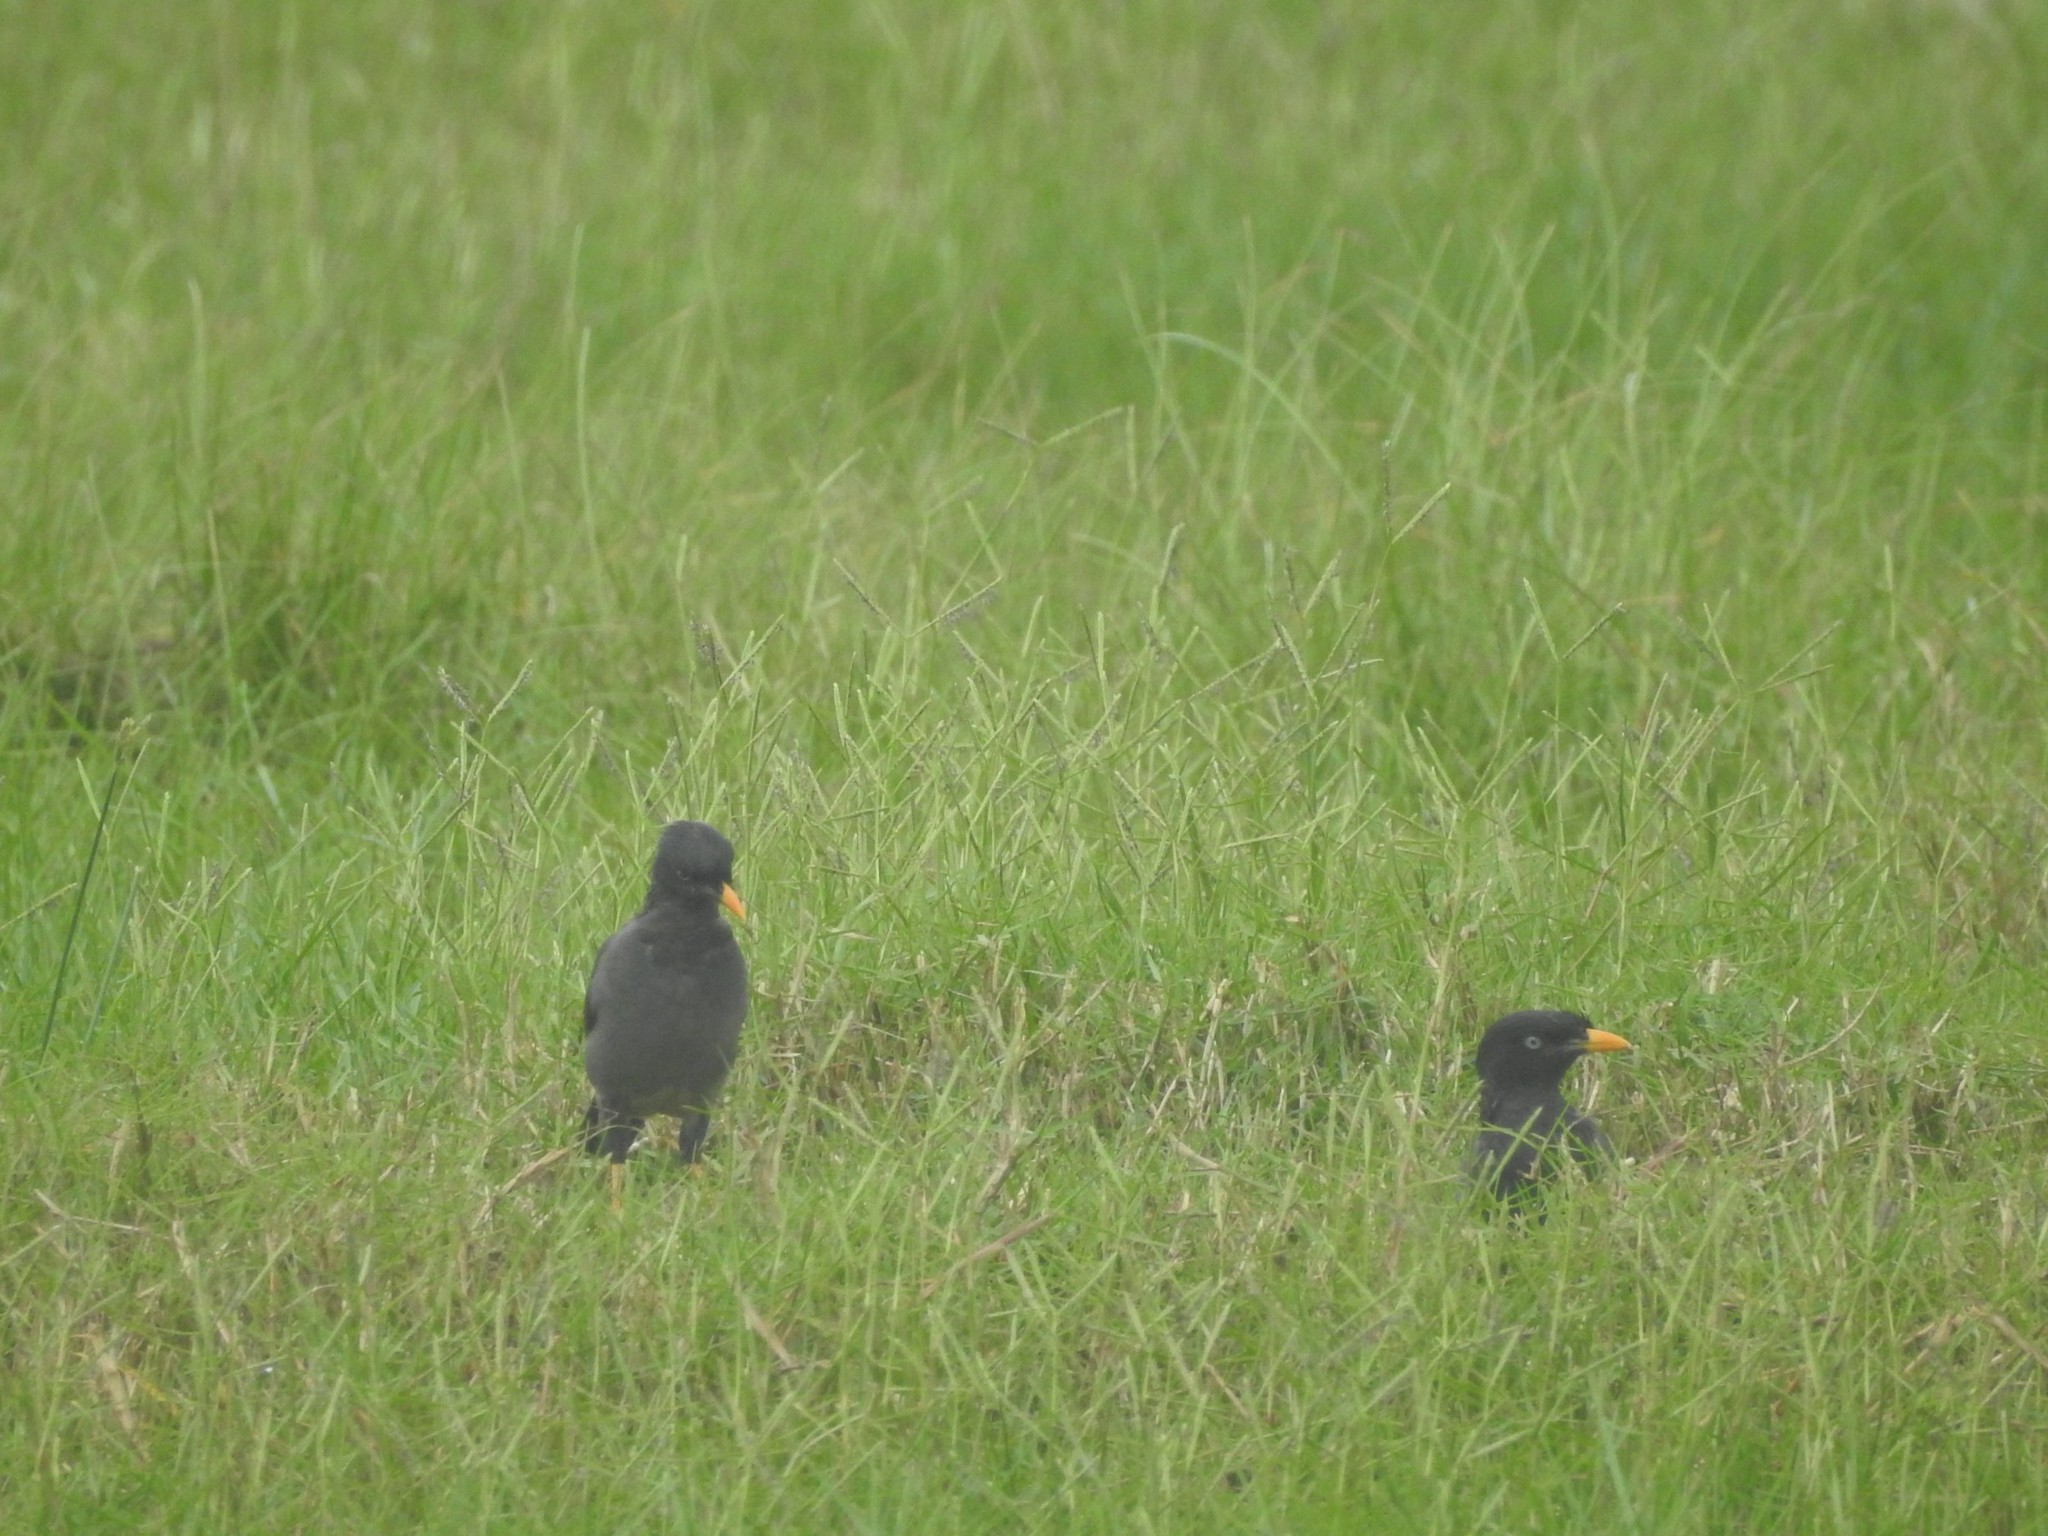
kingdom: Animalia
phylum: Chordata
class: Aves
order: Passeriformes
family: Sturnidae
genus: Acridotheres
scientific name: Acridotheres fuscus
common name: Jungle myna
